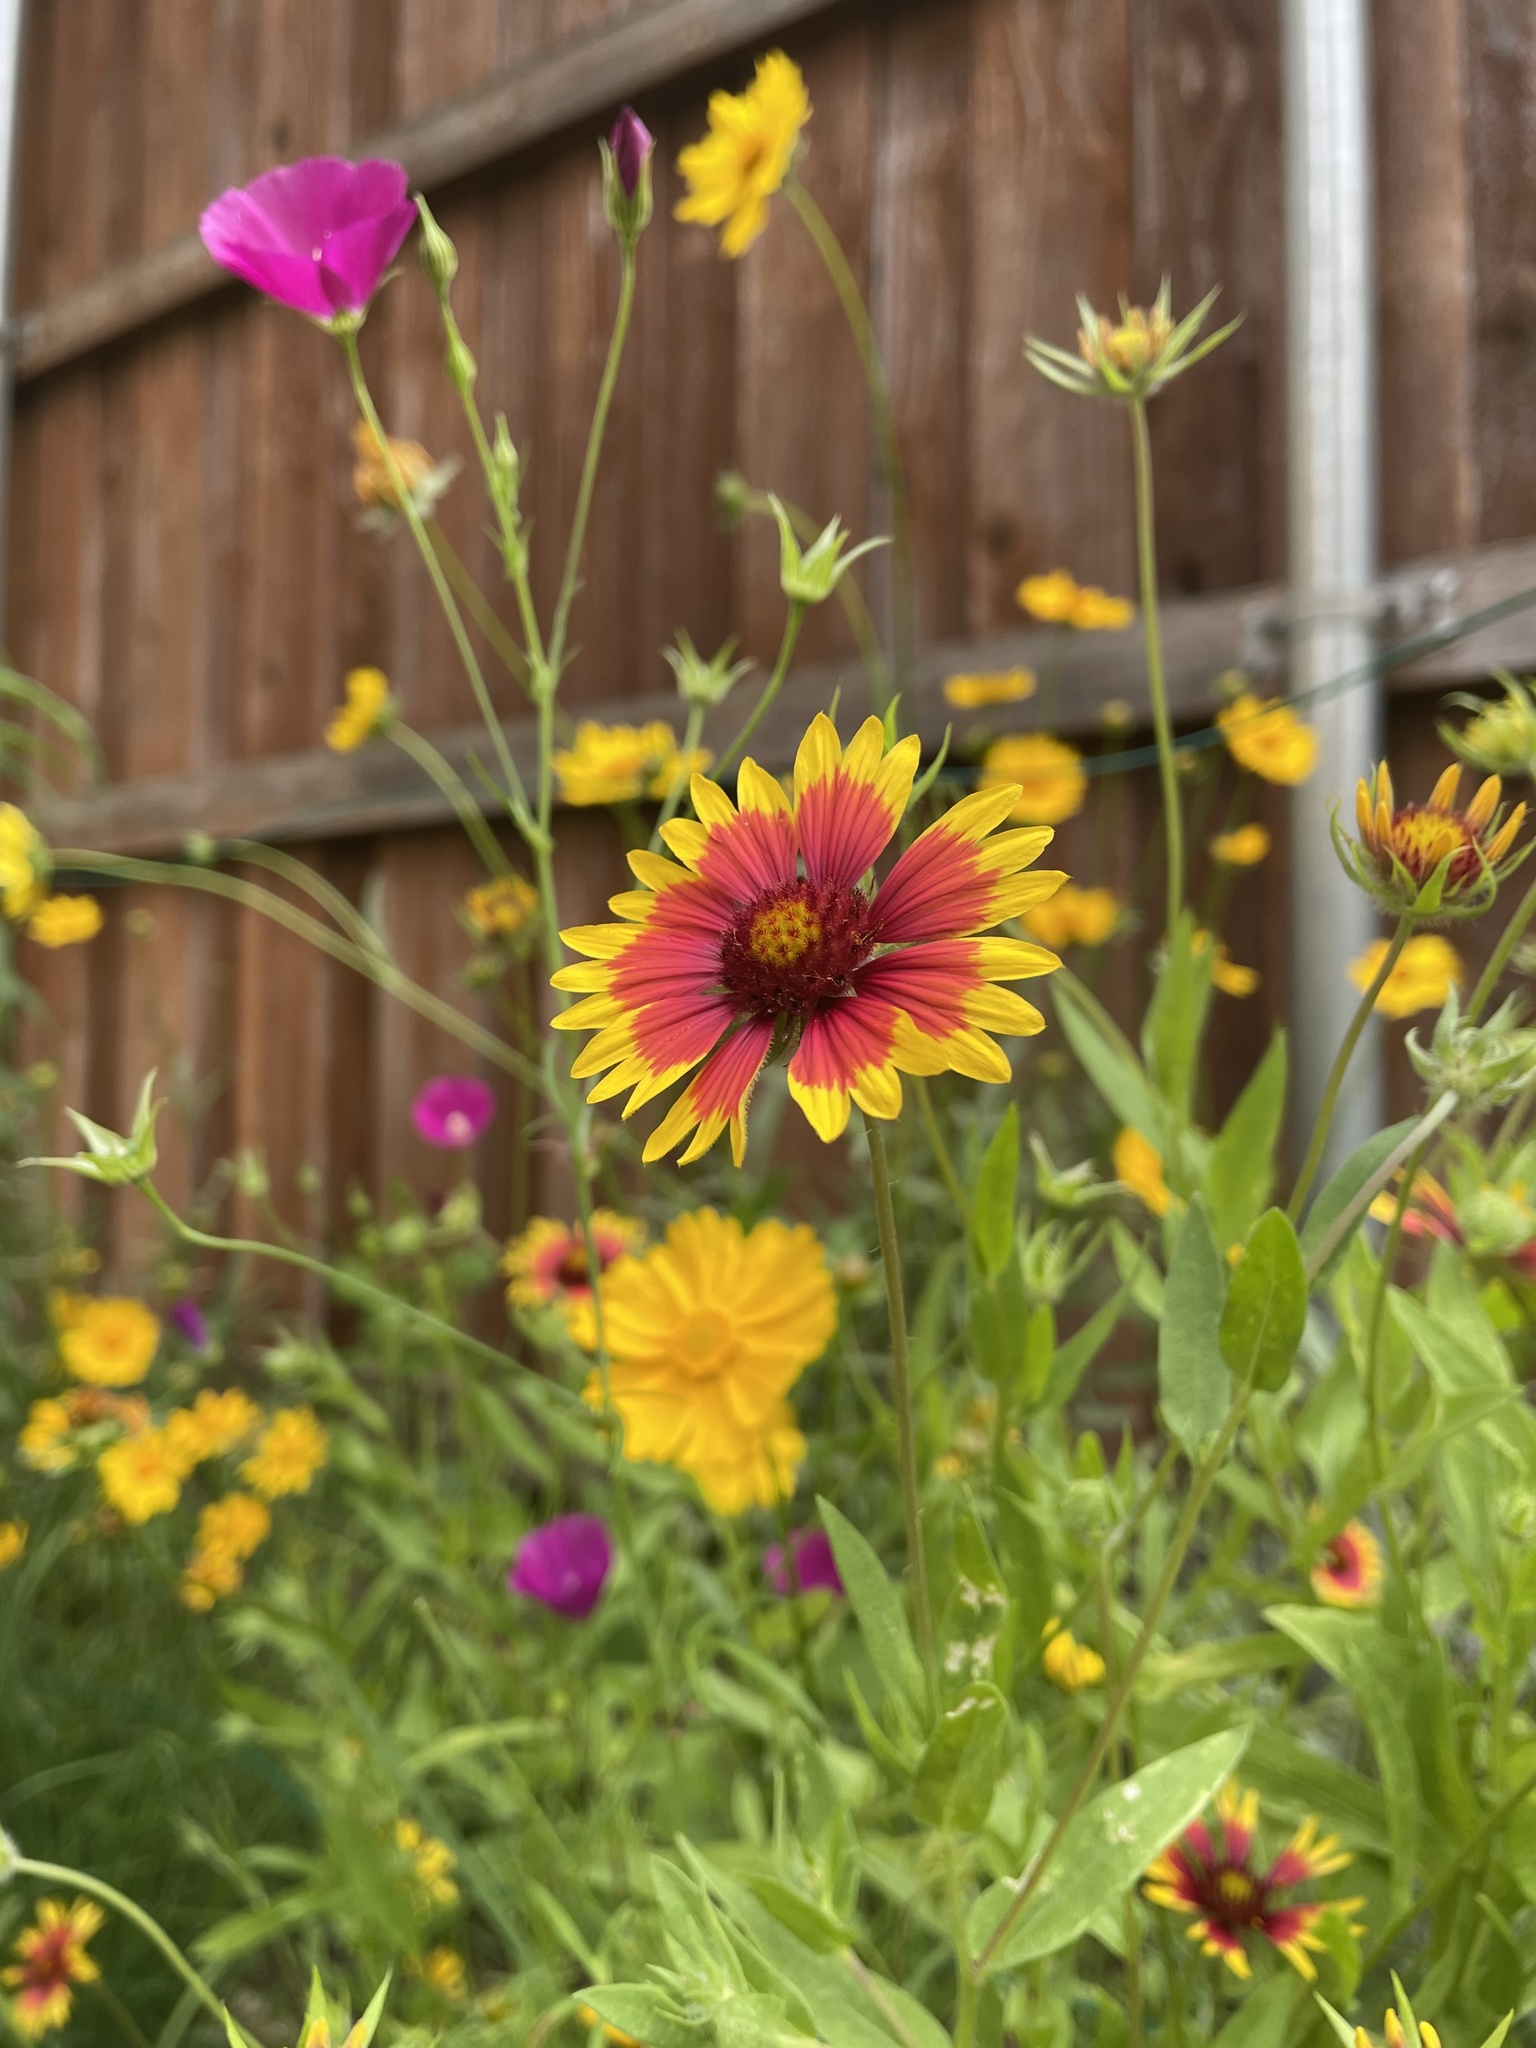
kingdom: Plantae
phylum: Tracheophyta
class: Magnoliopsida
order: Asterales
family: Asteraceae
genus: Gaillardia
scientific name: Gaillardia pulchella
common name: Firewheel
